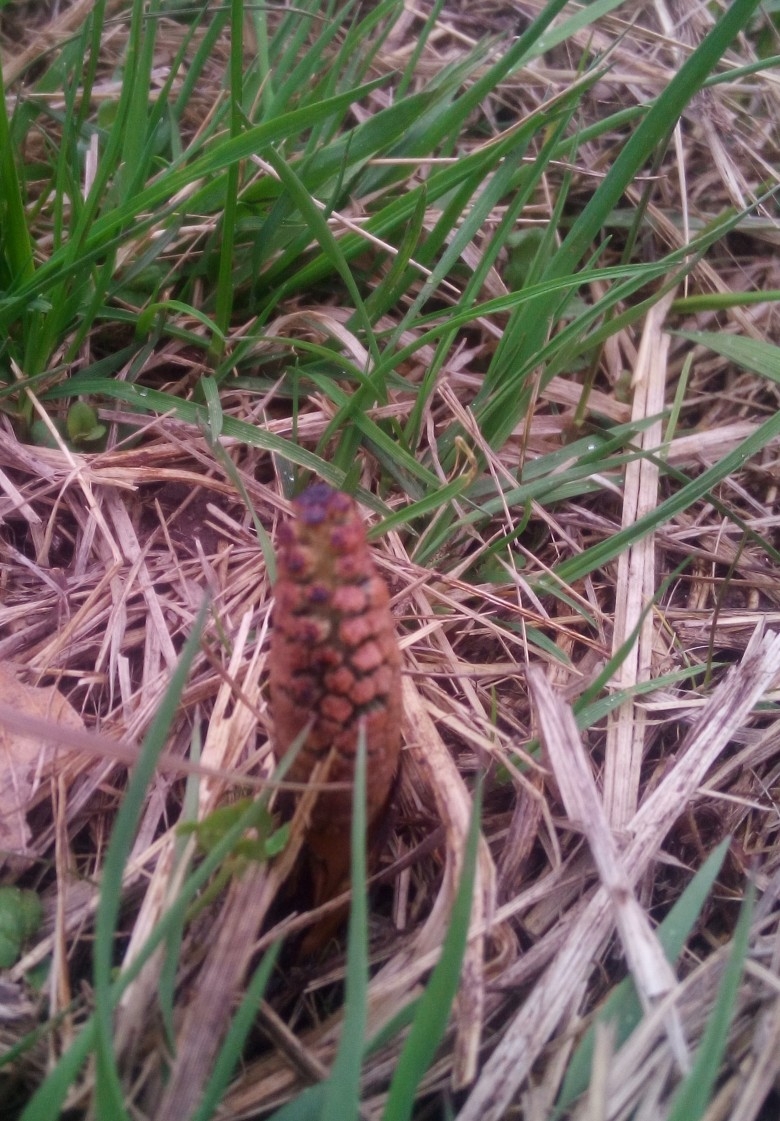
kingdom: Plantae
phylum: Tracheophyta
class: Polypodiopsida
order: Equisetales
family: Equisetaceae
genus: Equisetum
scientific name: Equisetum arvense
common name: Field horsetail
